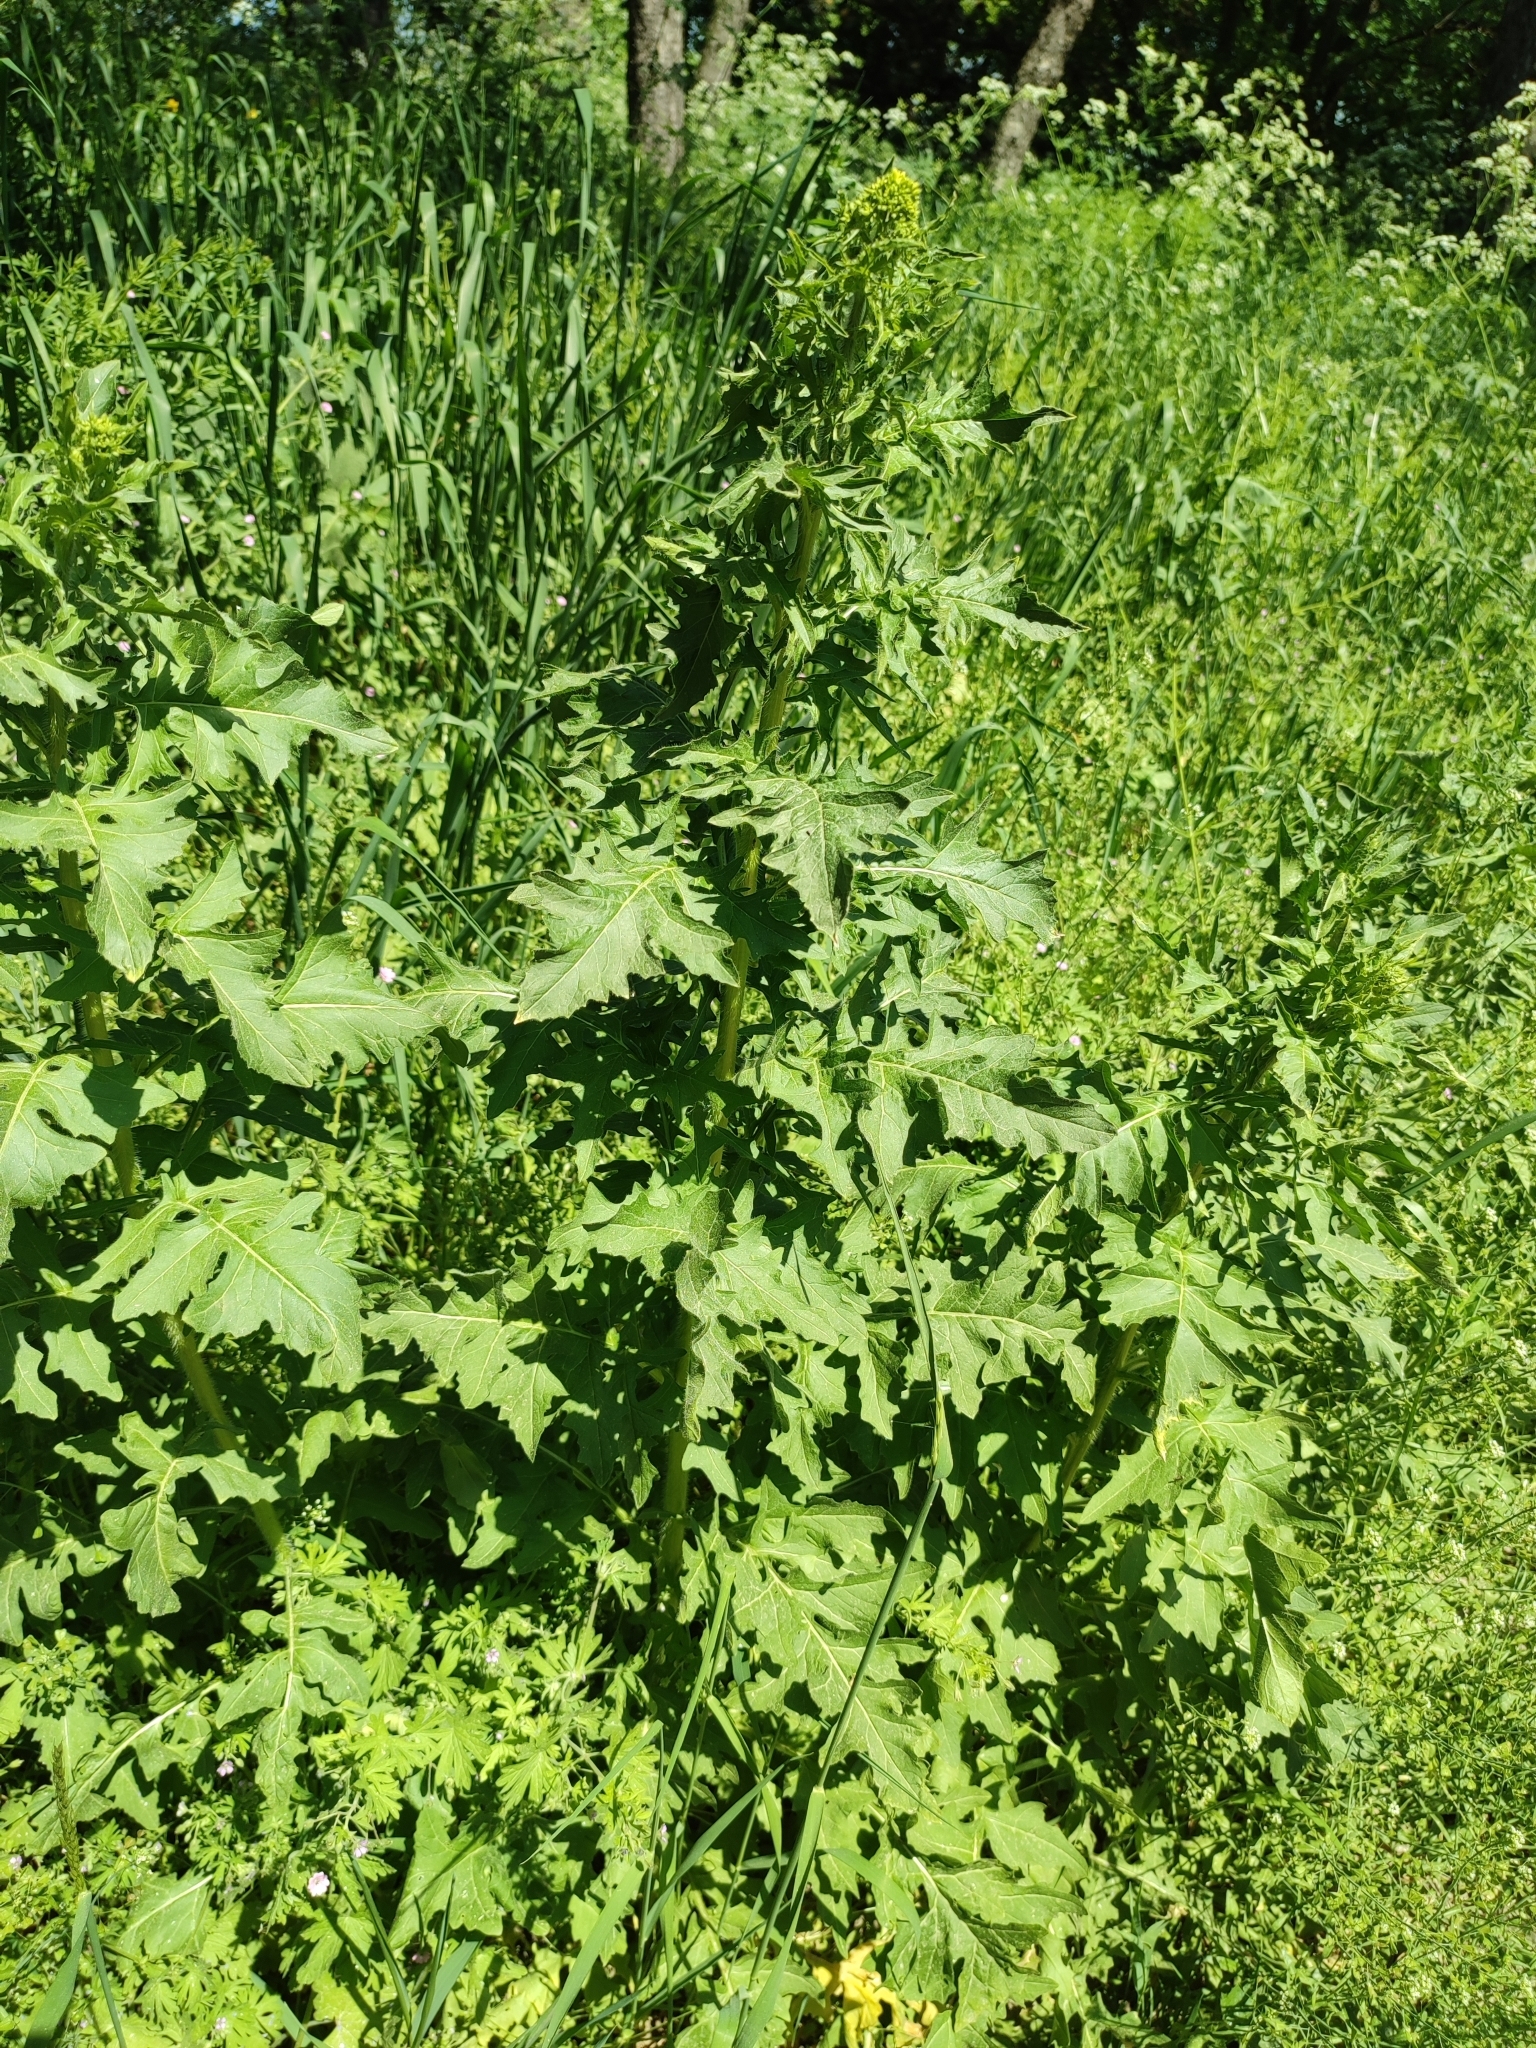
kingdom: Plantae
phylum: Tracheophyta
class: Magnoliopsida
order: Brassicales
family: Brassicaceae
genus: Sisymbrium
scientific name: Sisymbrium loeselii
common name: False london-rocket
